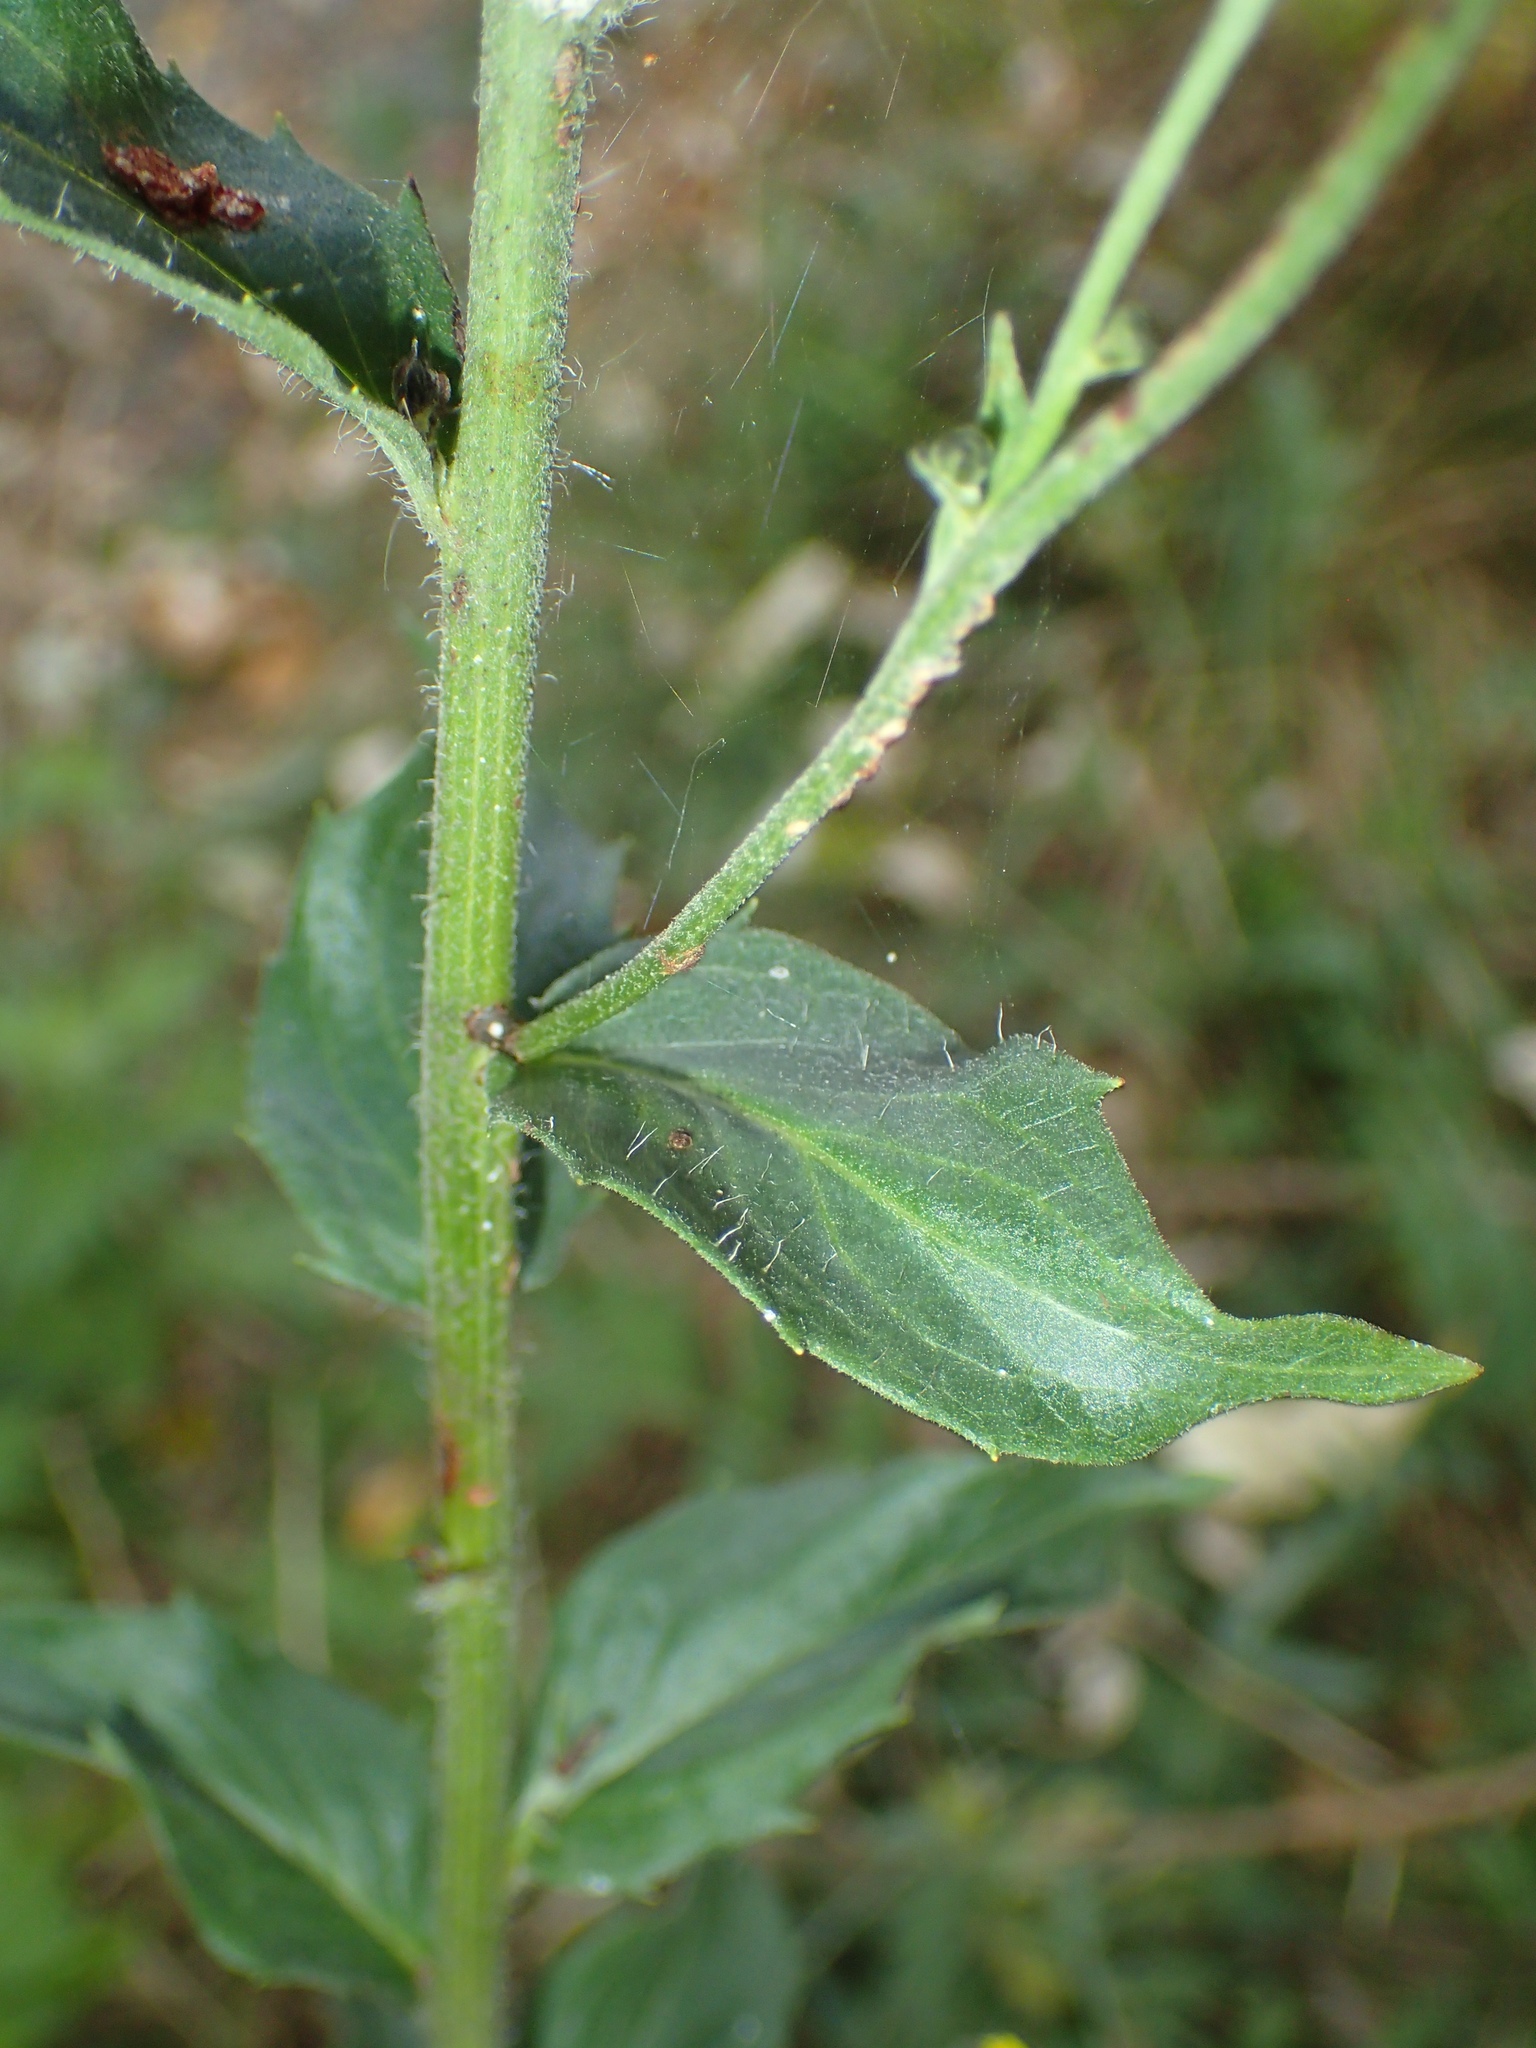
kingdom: Plantae
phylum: Tracheophyta
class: Magnoliopsida
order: Asterales
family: Asteraceae
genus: Hieracium
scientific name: Hieracium umbellatum
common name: Northern hawkweed
